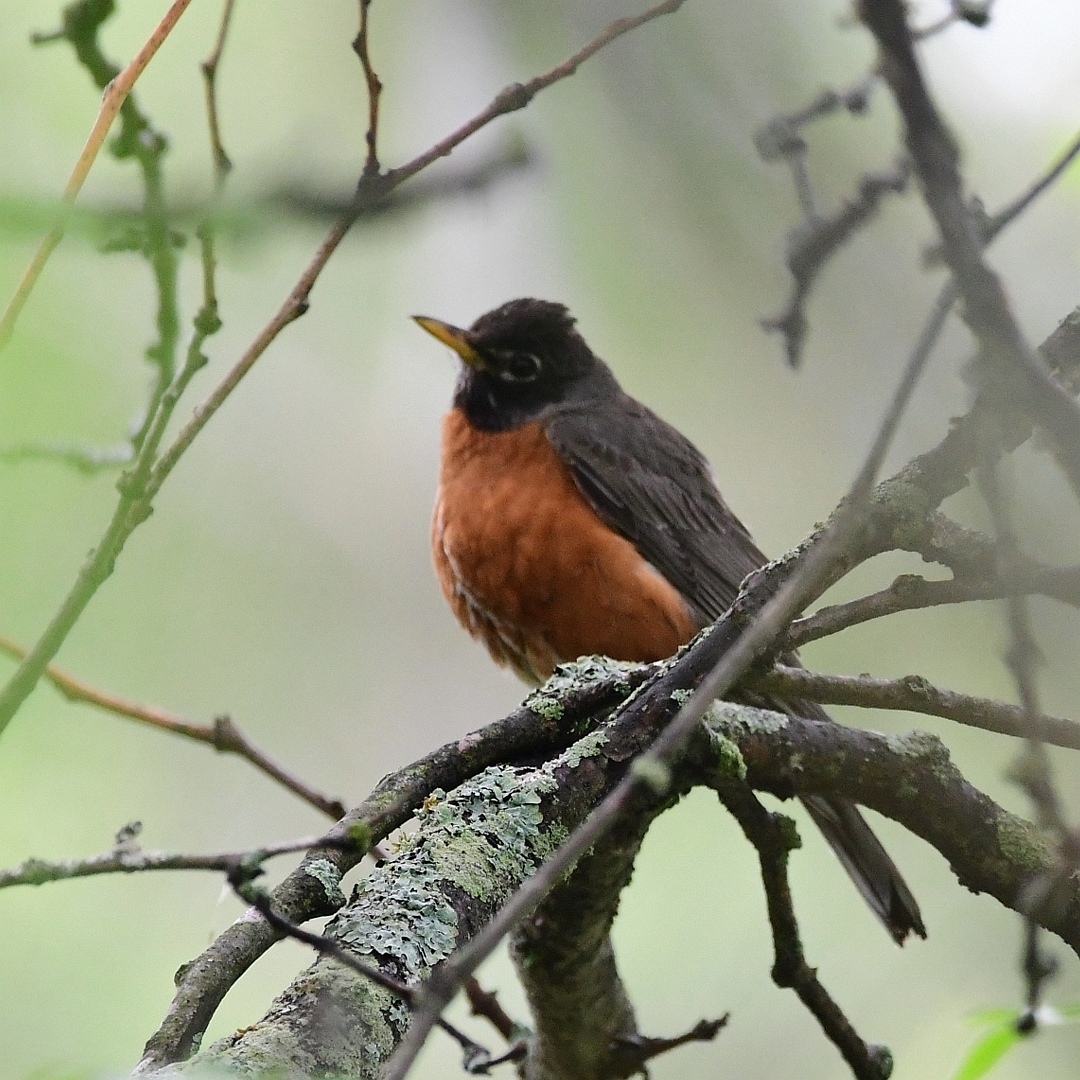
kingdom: Animalia
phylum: Chordata
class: Aves
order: Passeriformes
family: Turdidae
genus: Turdus
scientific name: Turdus migratorius
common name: American robin
